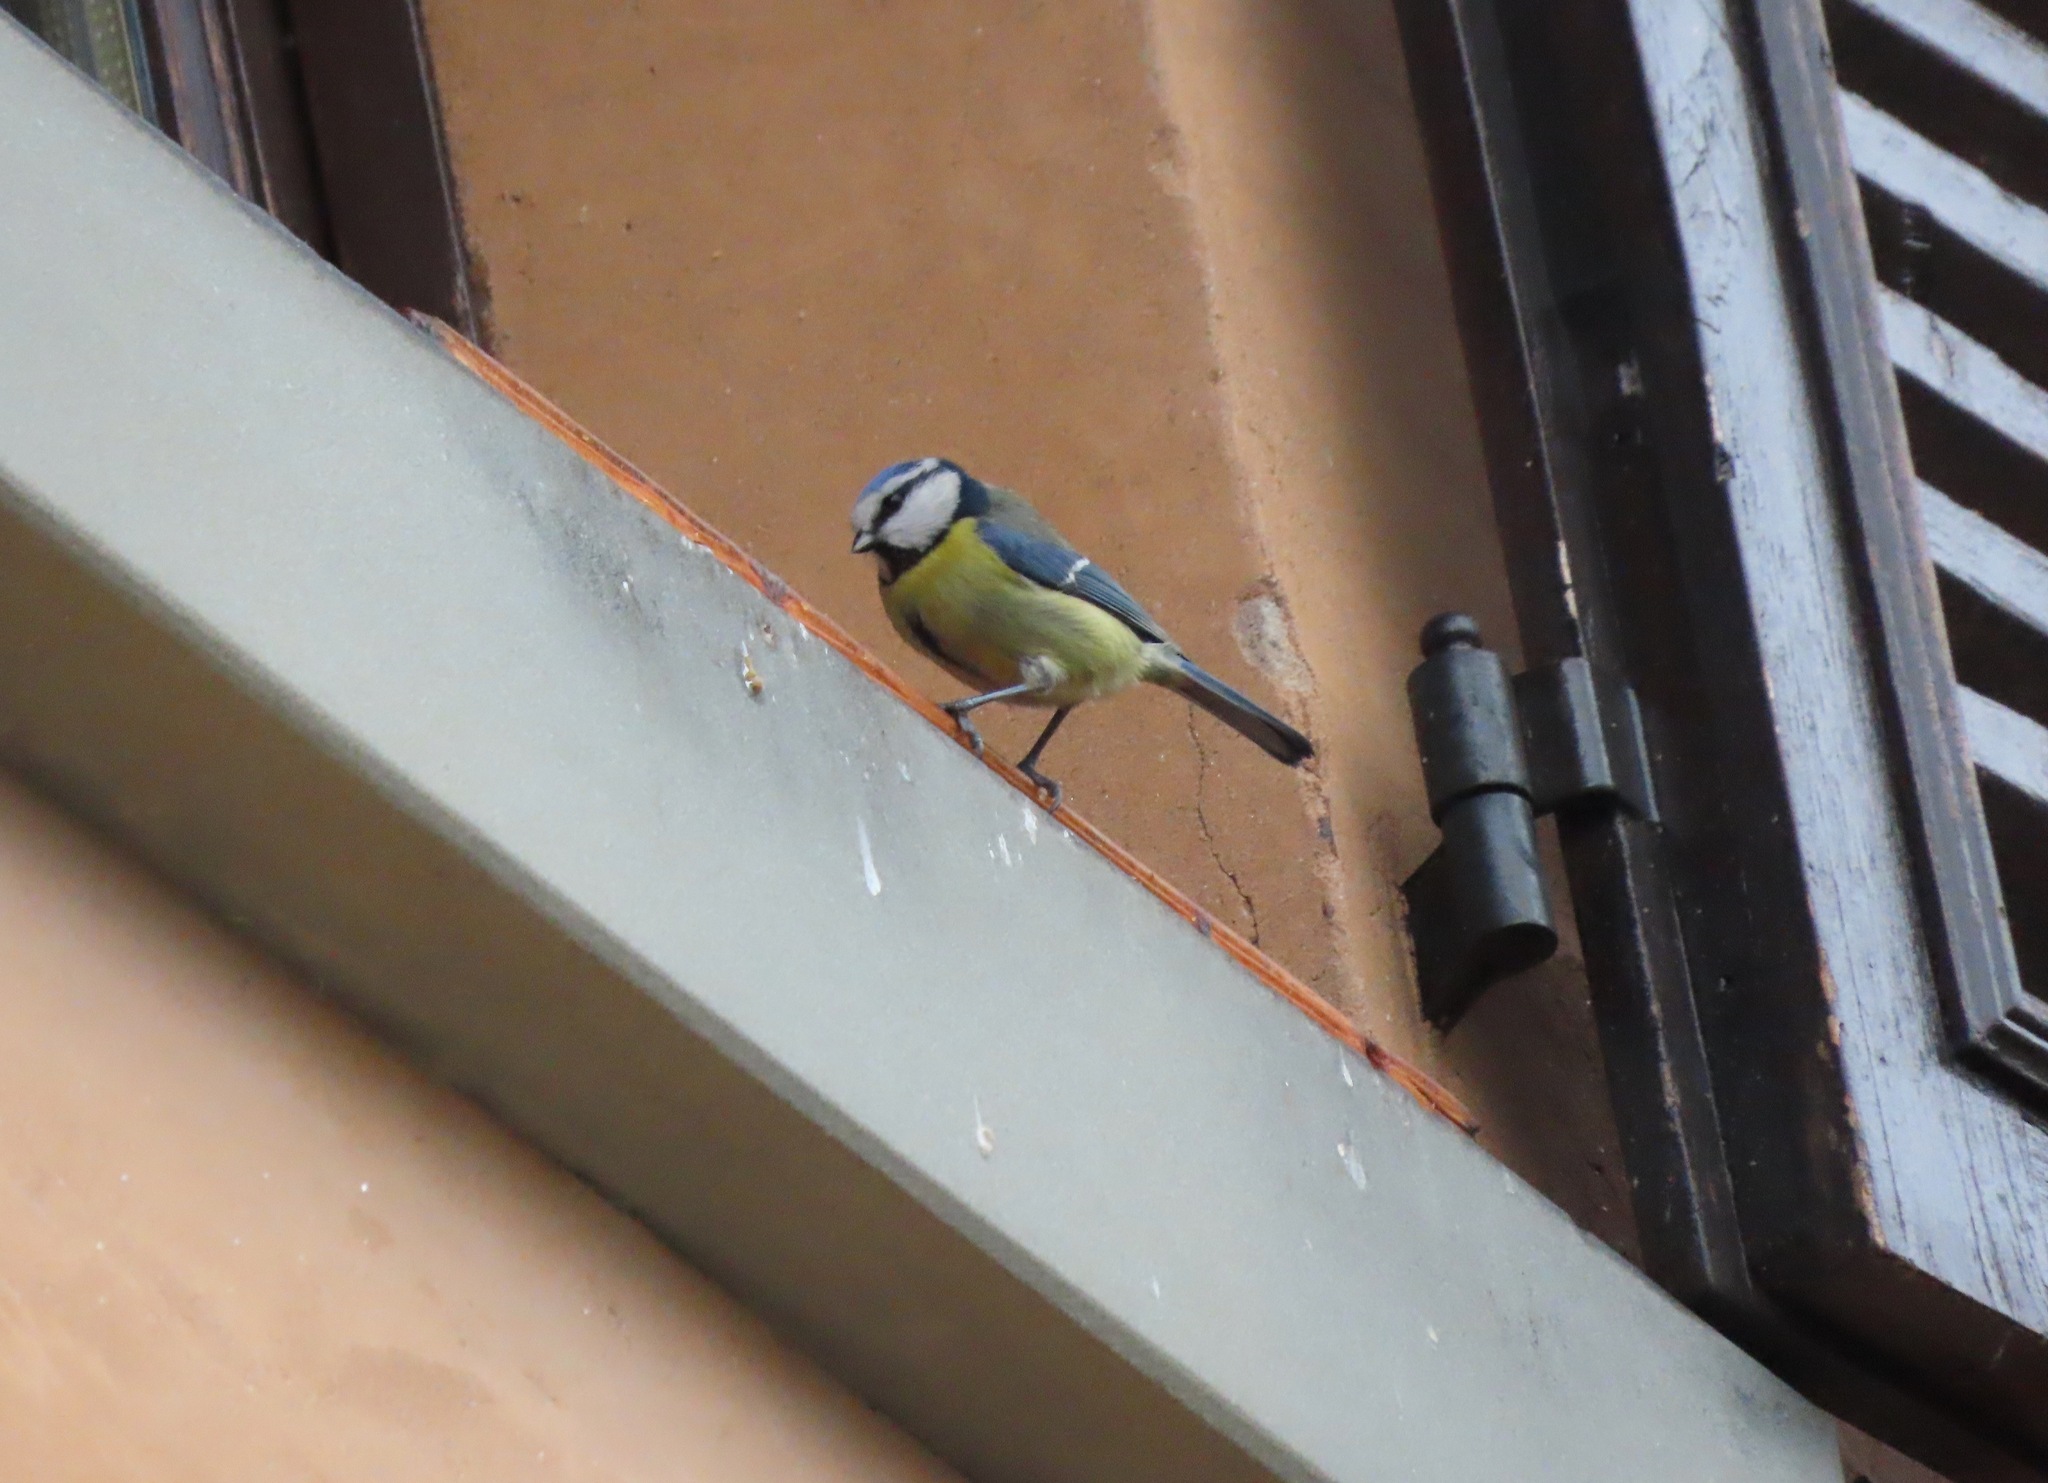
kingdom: Animalia
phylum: Chordata
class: Aves
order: Passeriformes
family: Paridae
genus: Cyanistes
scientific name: Cyanistes caeruleus
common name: Eurasian blue tit
